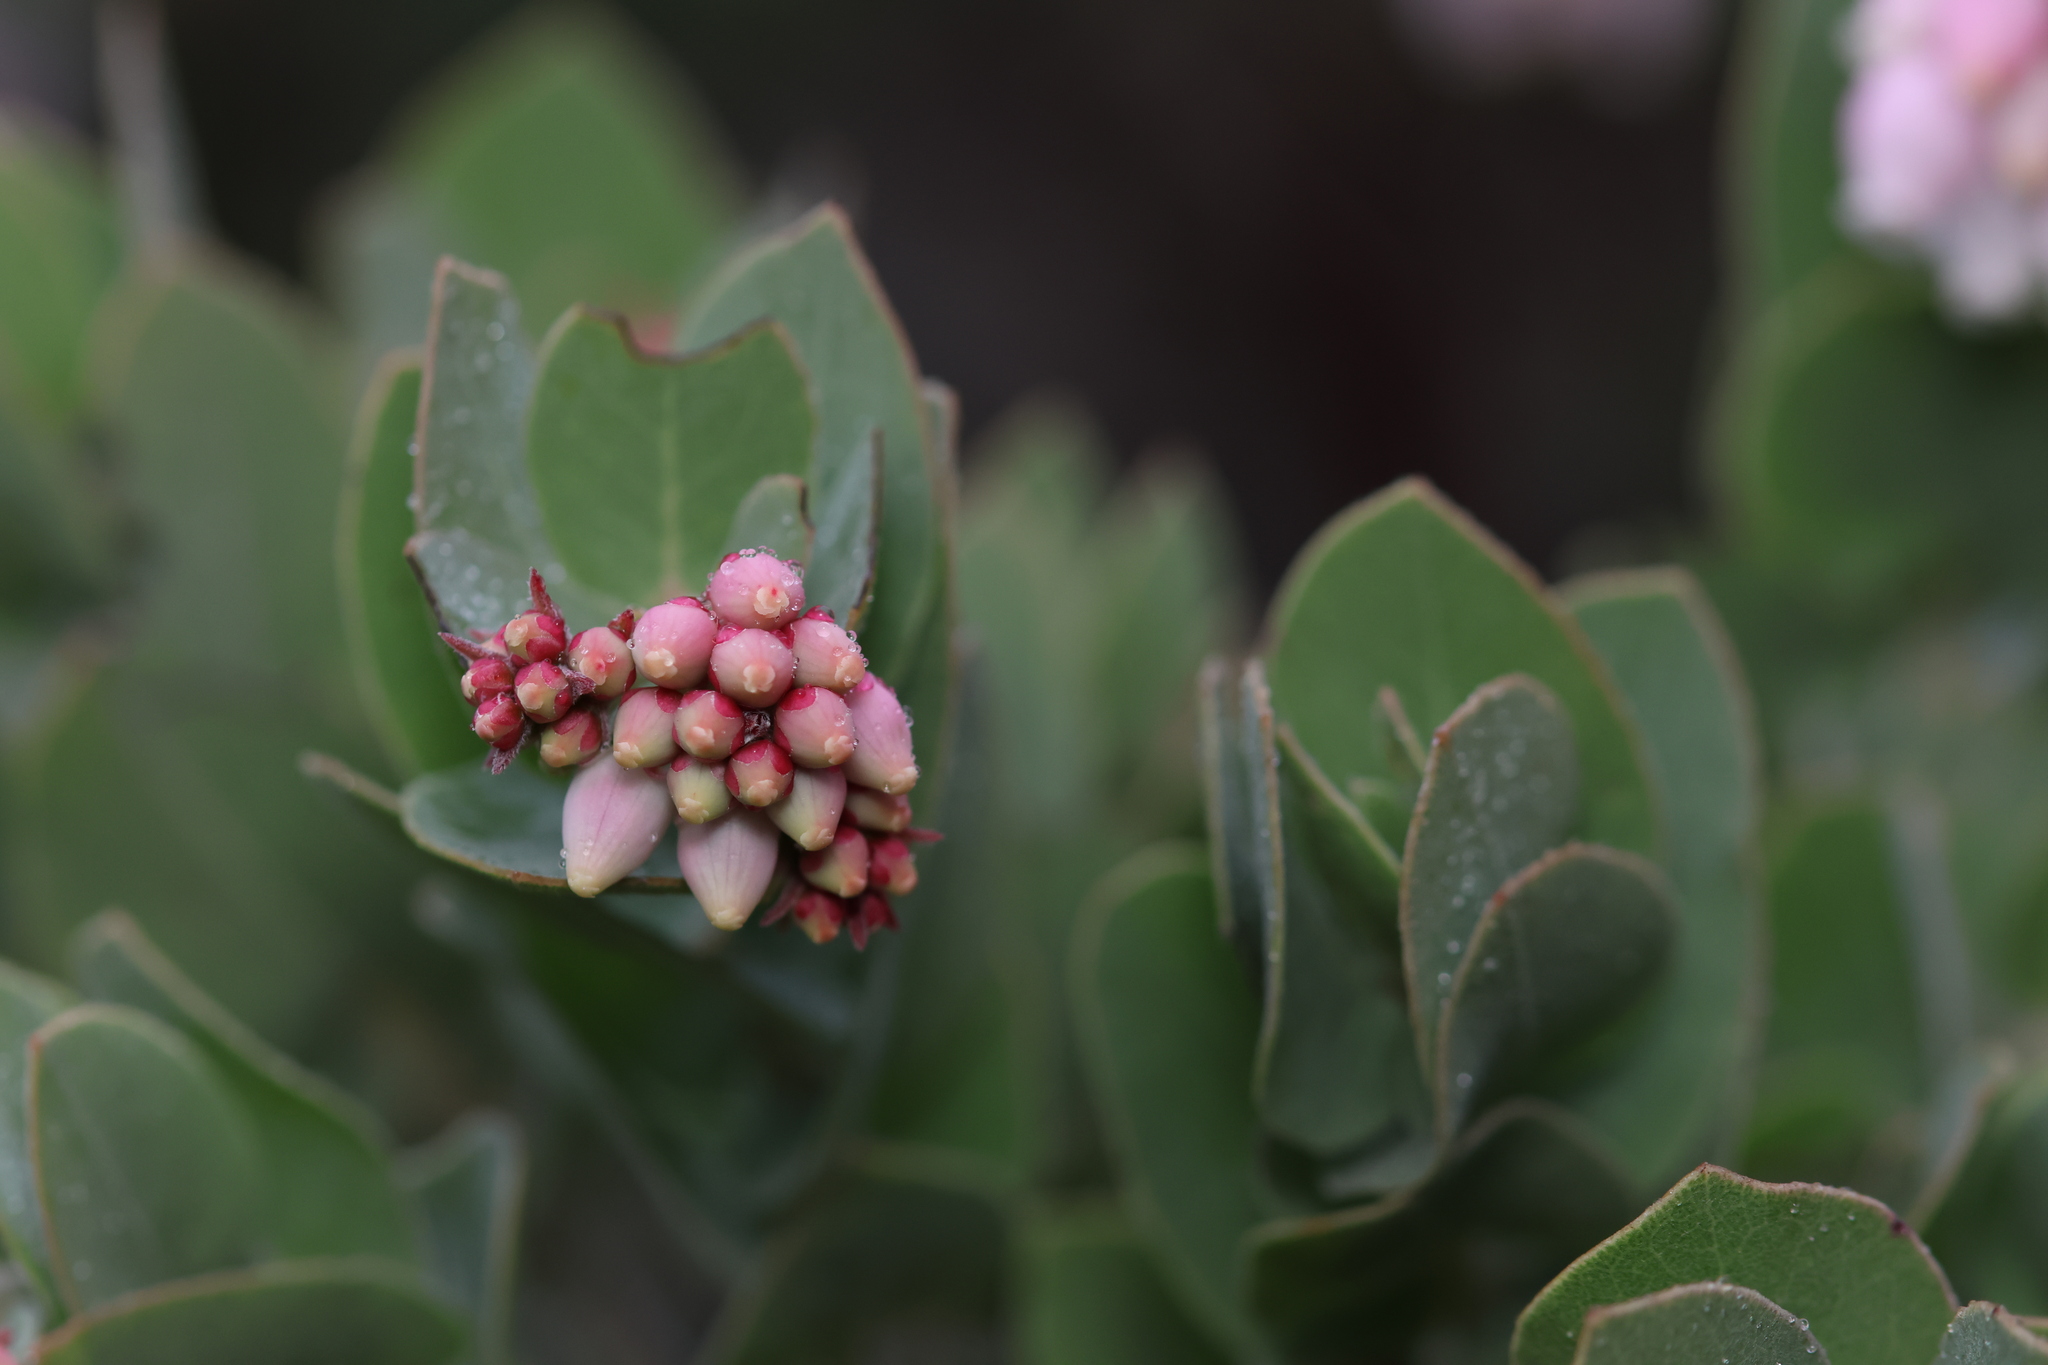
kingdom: Plantae
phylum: Tracheophyta
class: Magnoliopsida
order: Ericales
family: Ericaceae
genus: Arctostaphylos
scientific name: Arctostaphylos auriculata
